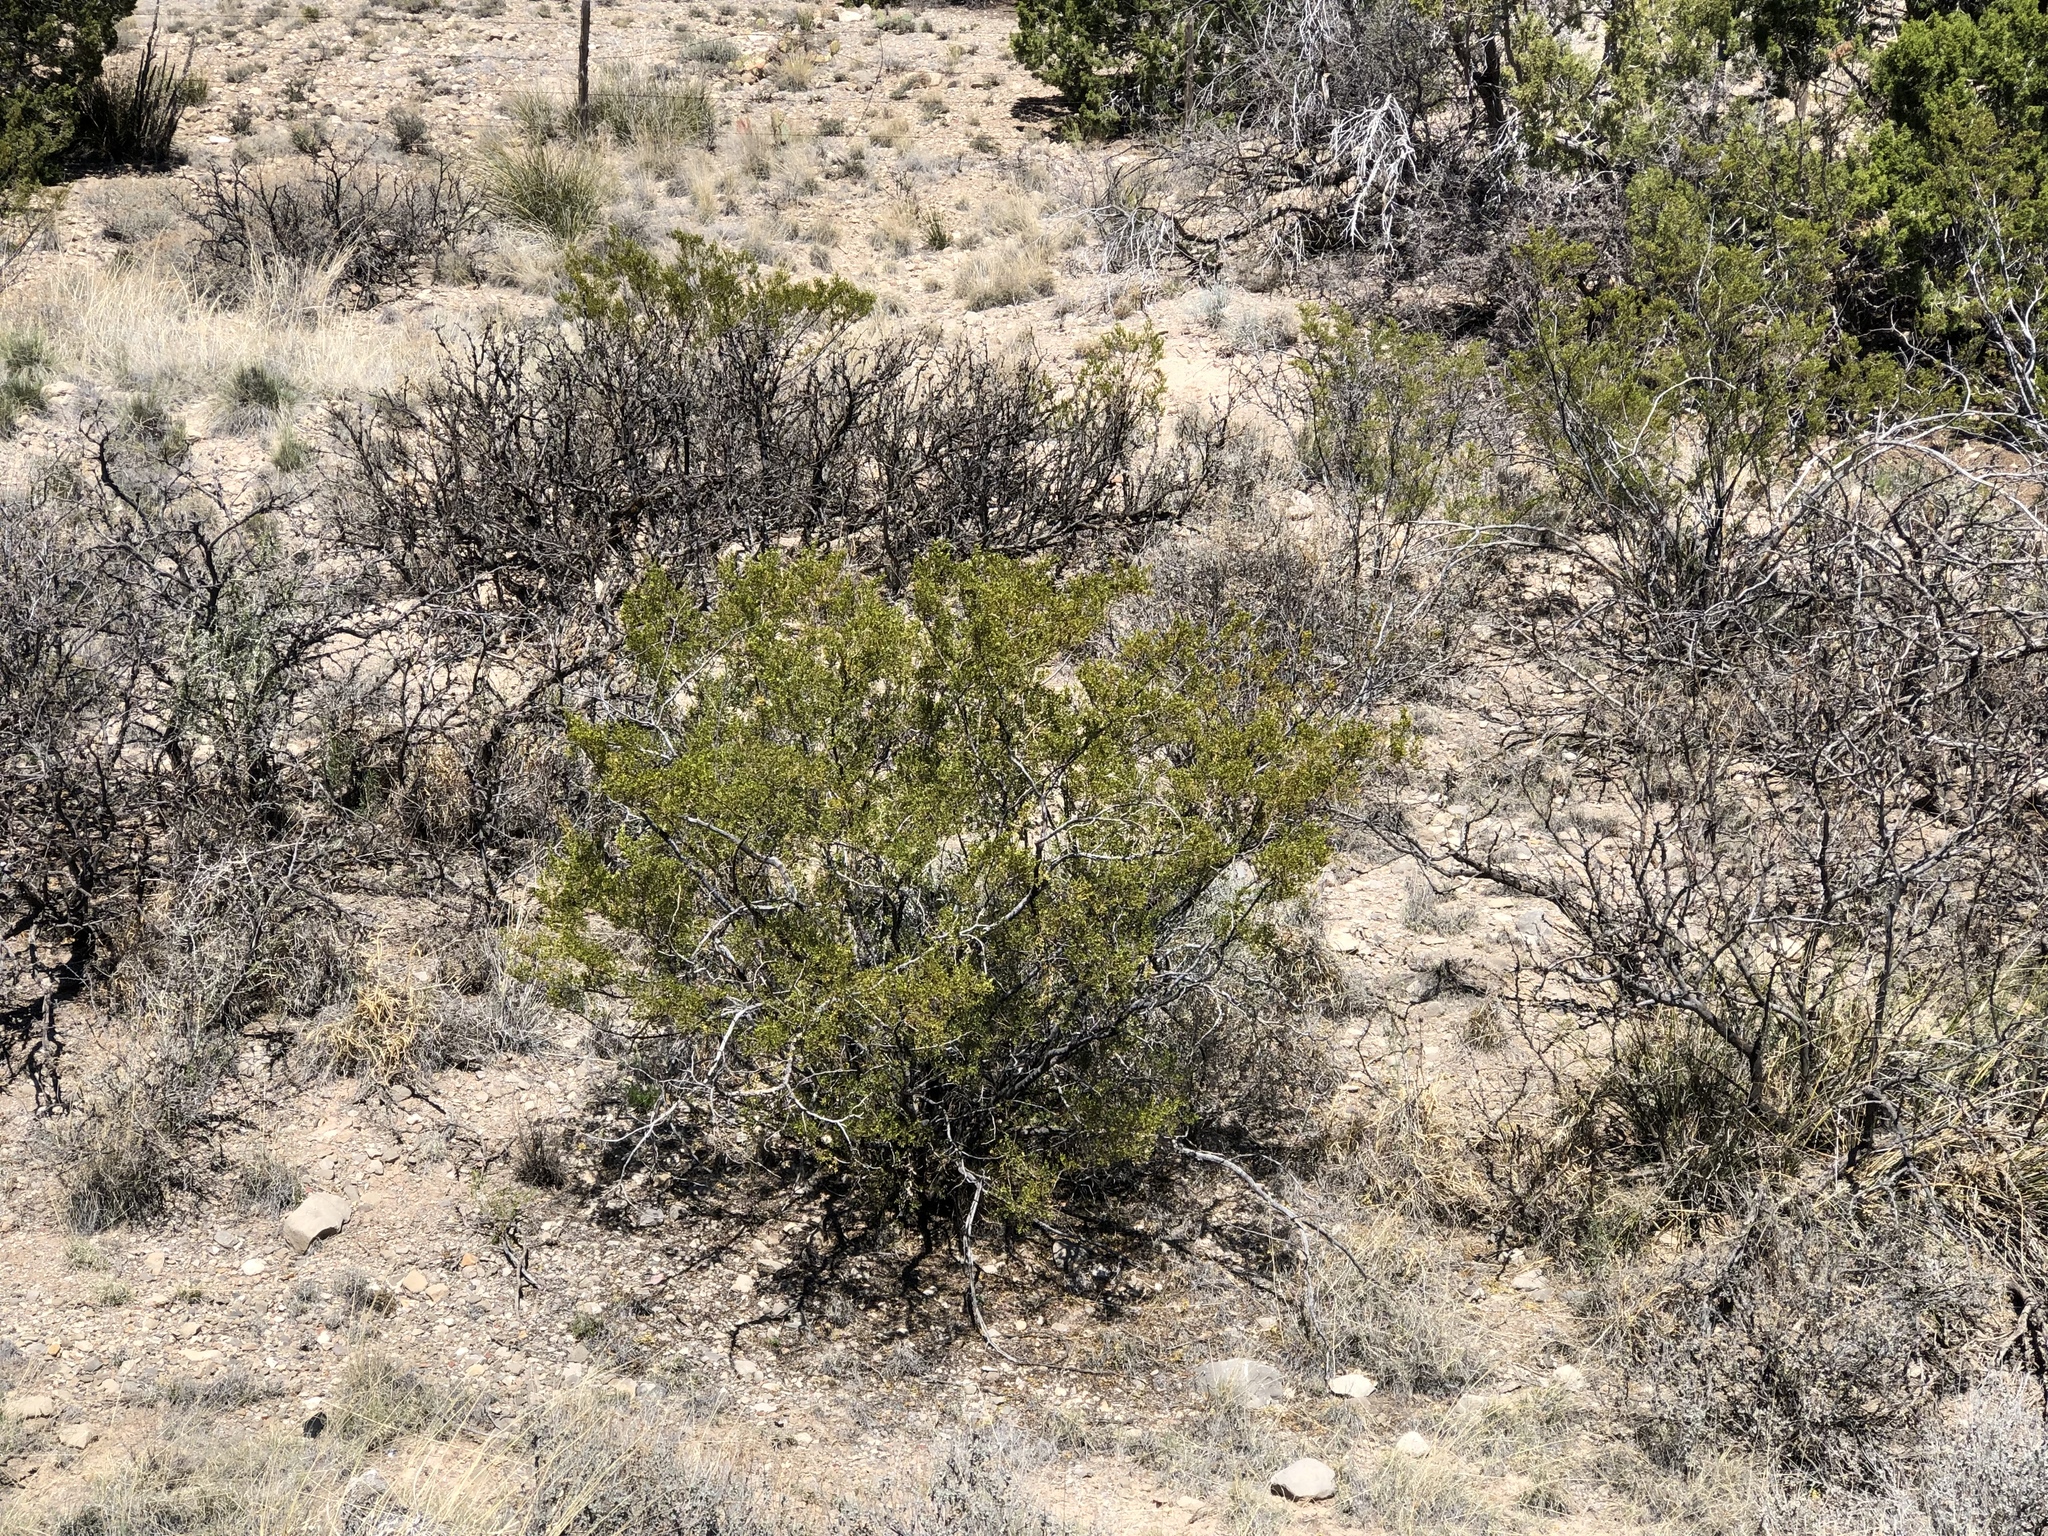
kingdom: Plantae
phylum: Tracheophyta
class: Magnoliopsida
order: Zygophyllales
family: Zygophyllaceae
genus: Larrea
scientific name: Larrea tridentata
